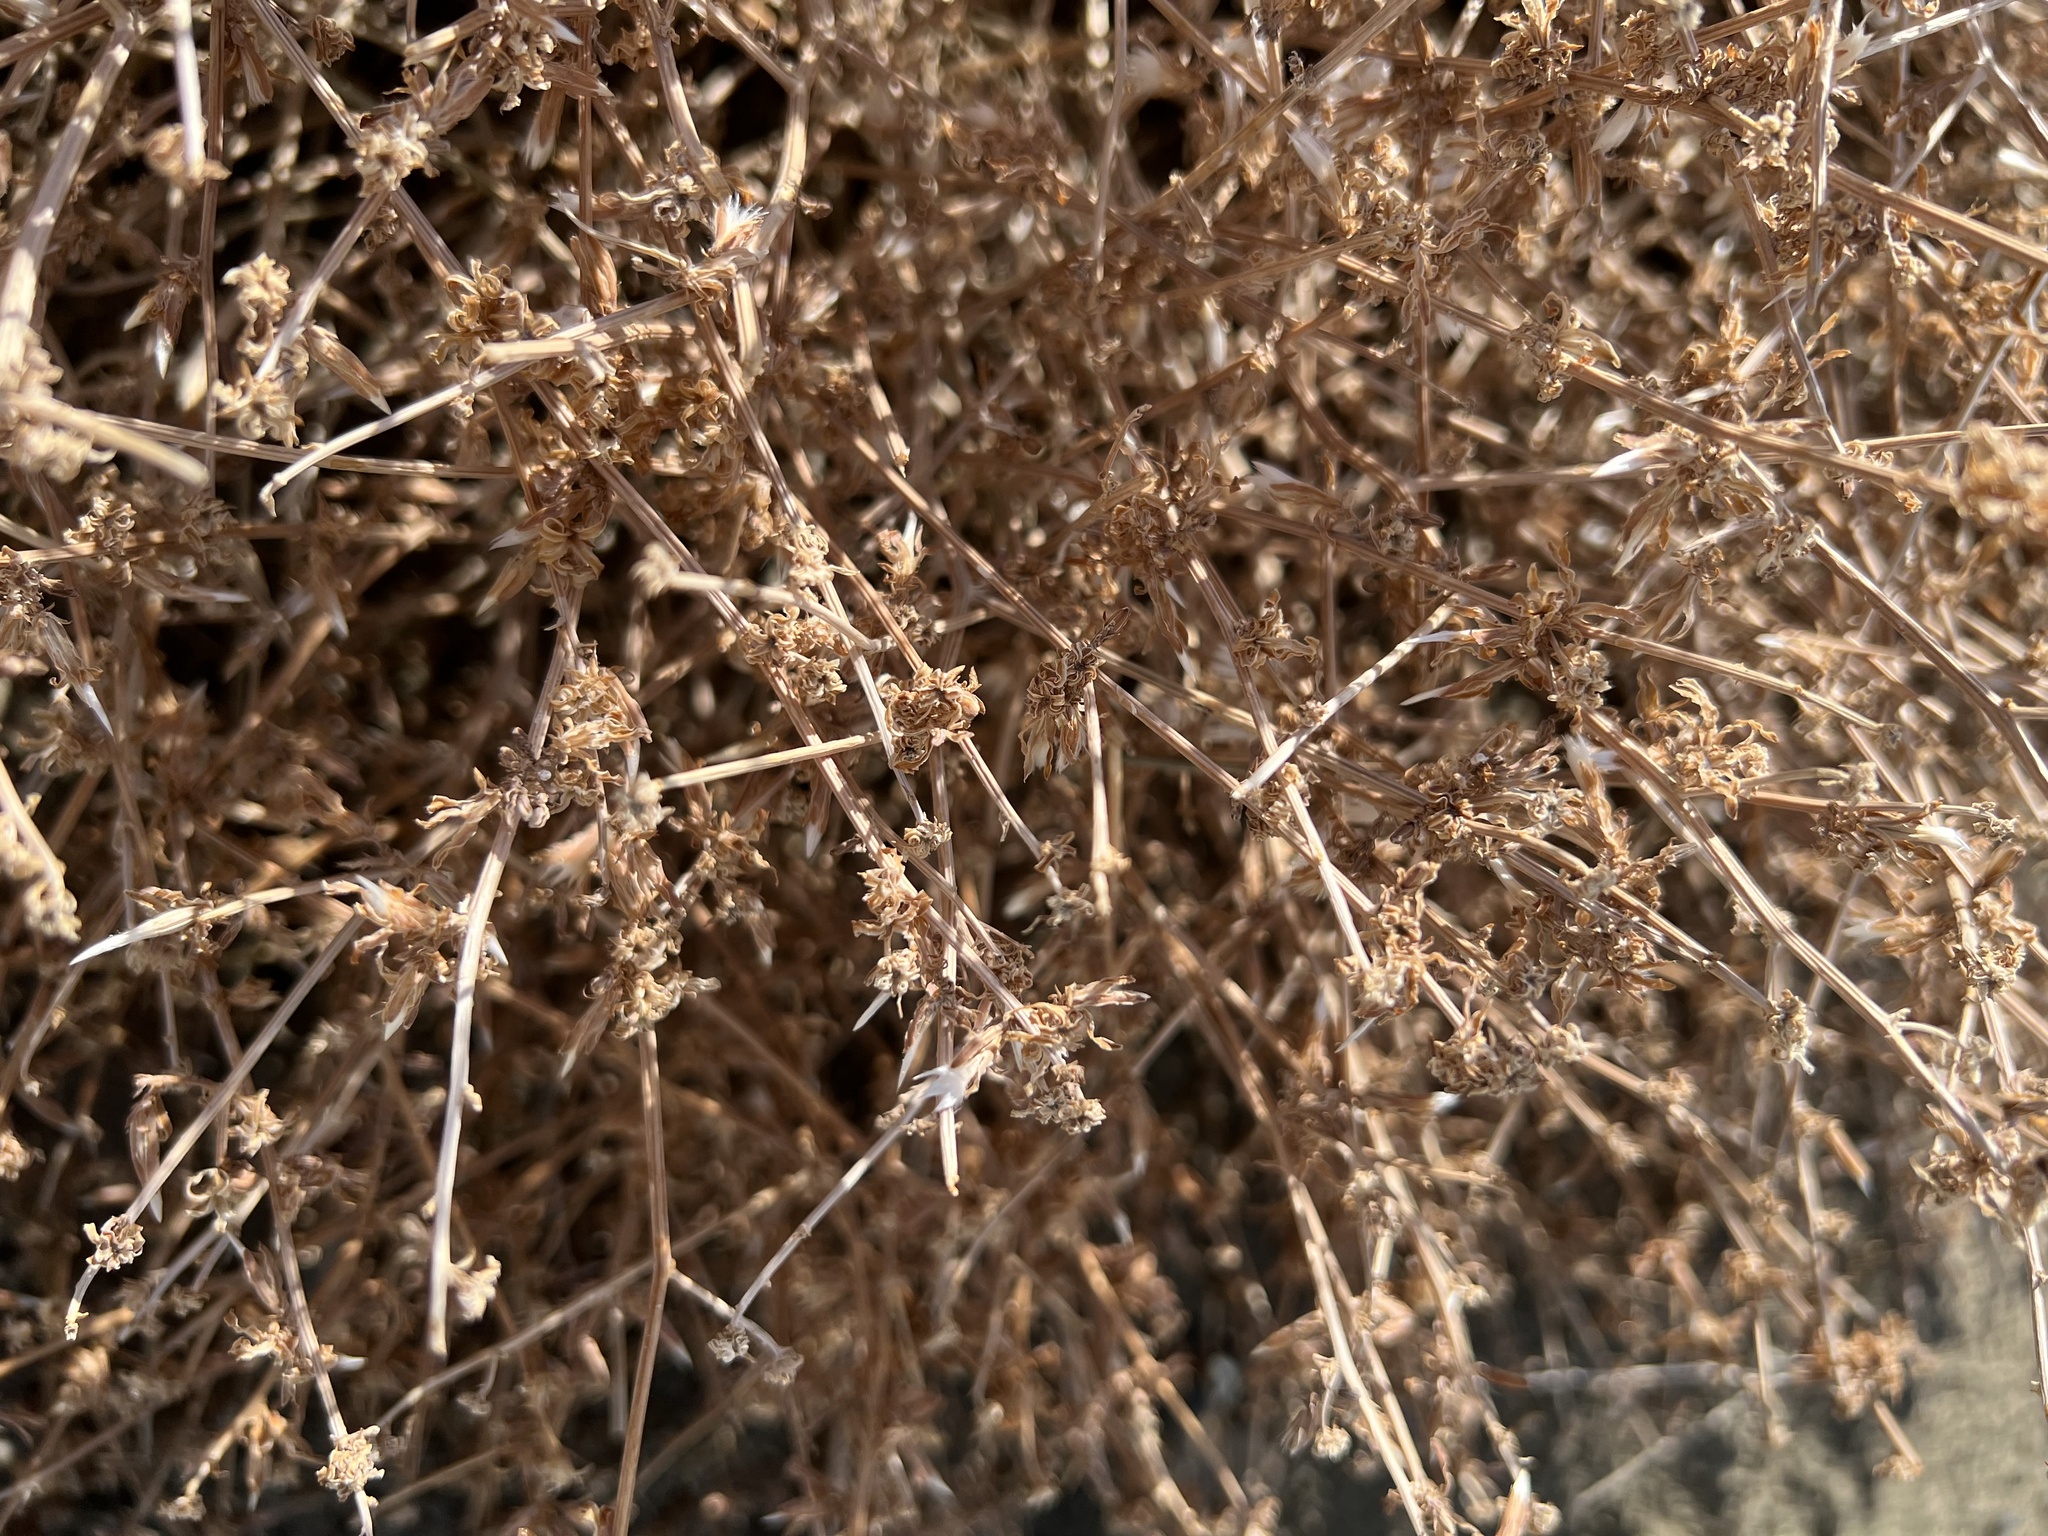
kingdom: Plantae
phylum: Tracheophyta
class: Magnoliopsida
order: Asterales
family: Asteraceae
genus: Stephanomeria
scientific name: Stephanomeria pauciflora
